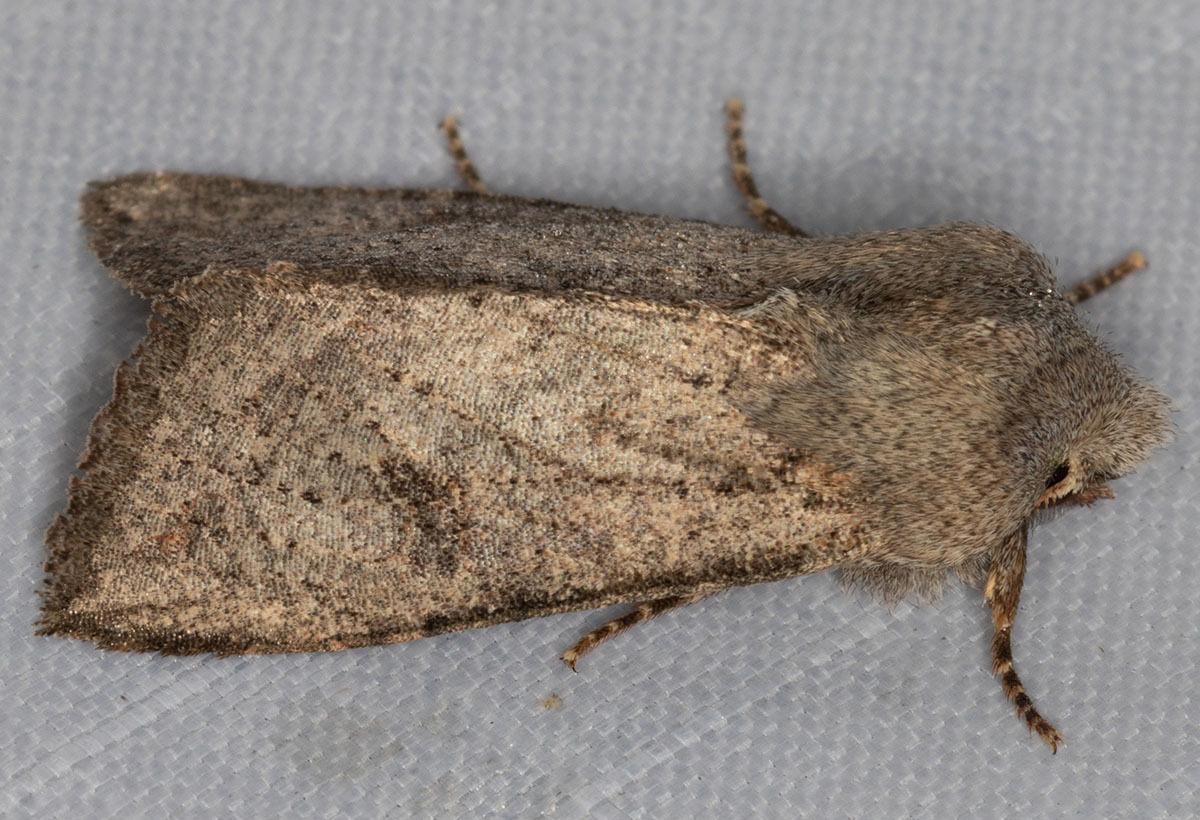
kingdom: Animalia
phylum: Arthropoda
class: Insecta
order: Lepidoptera
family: Noctuidae
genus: Orthosia
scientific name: Orthosia erythrolita
